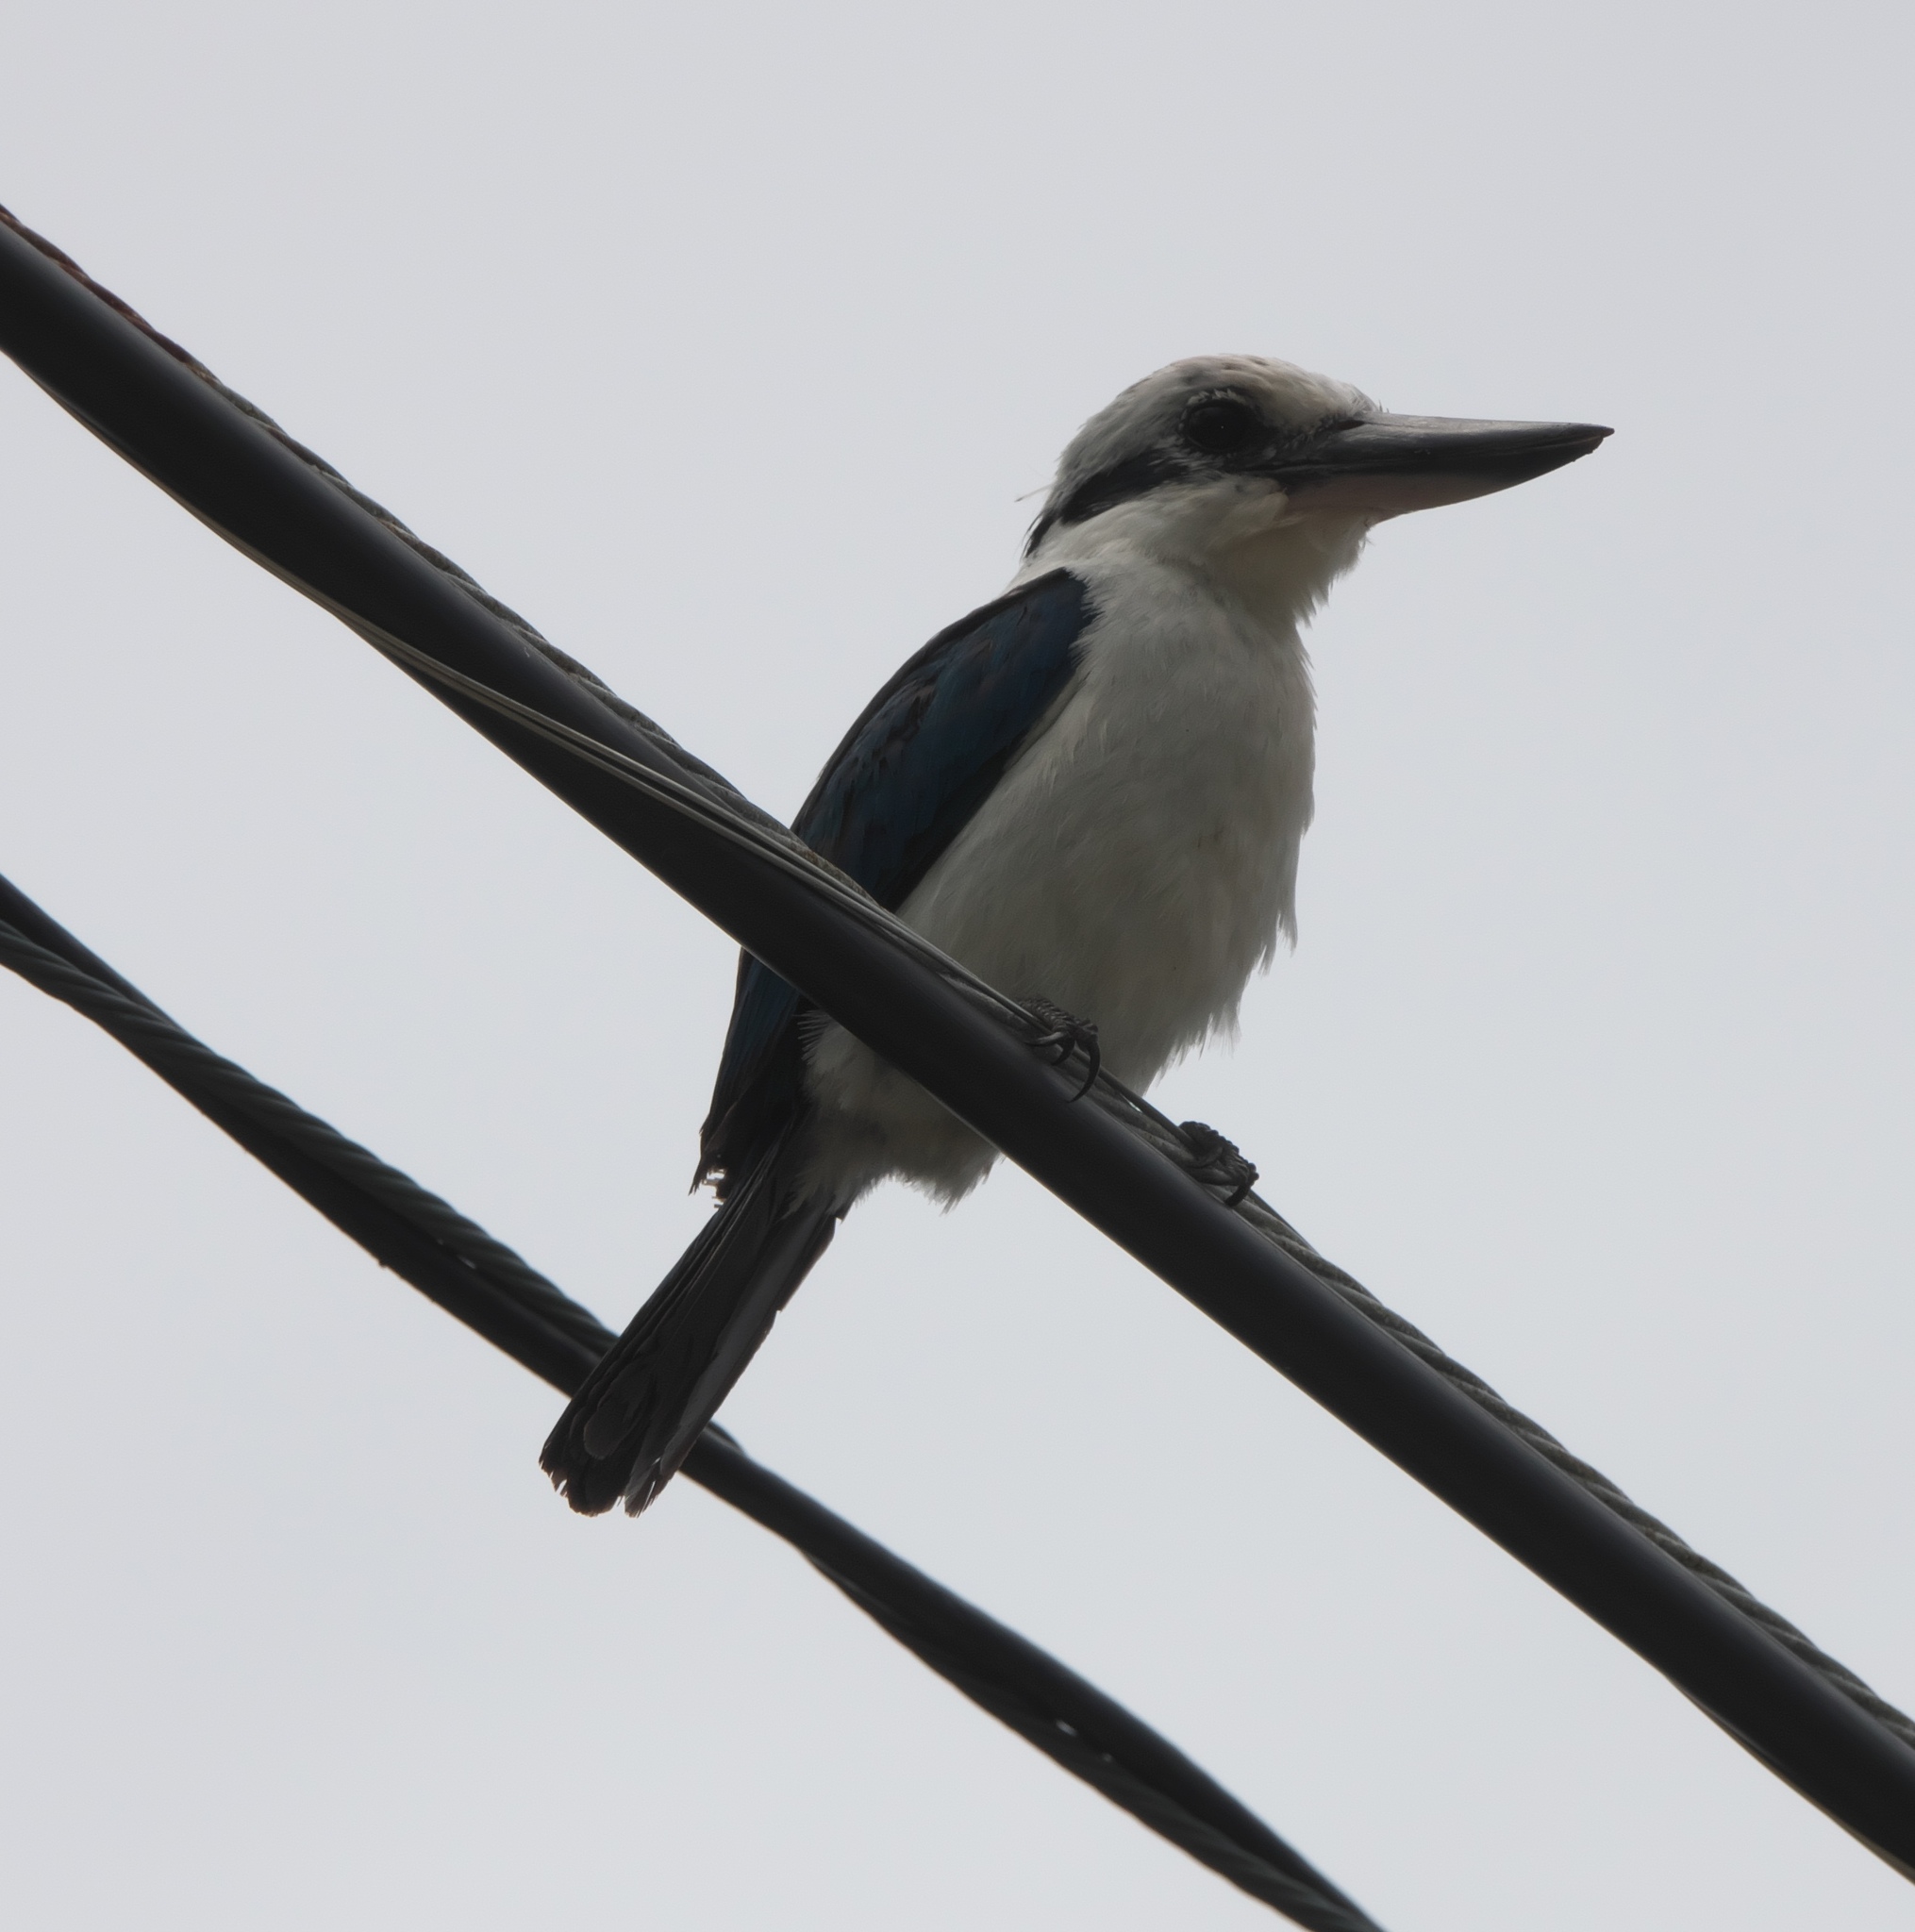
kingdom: Animalia
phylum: Chordata
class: Aves
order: Coraciiformes
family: Alcedinidae
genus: Todiramphus
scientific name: Todiramphus sacer
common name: Pacific kingfisher
